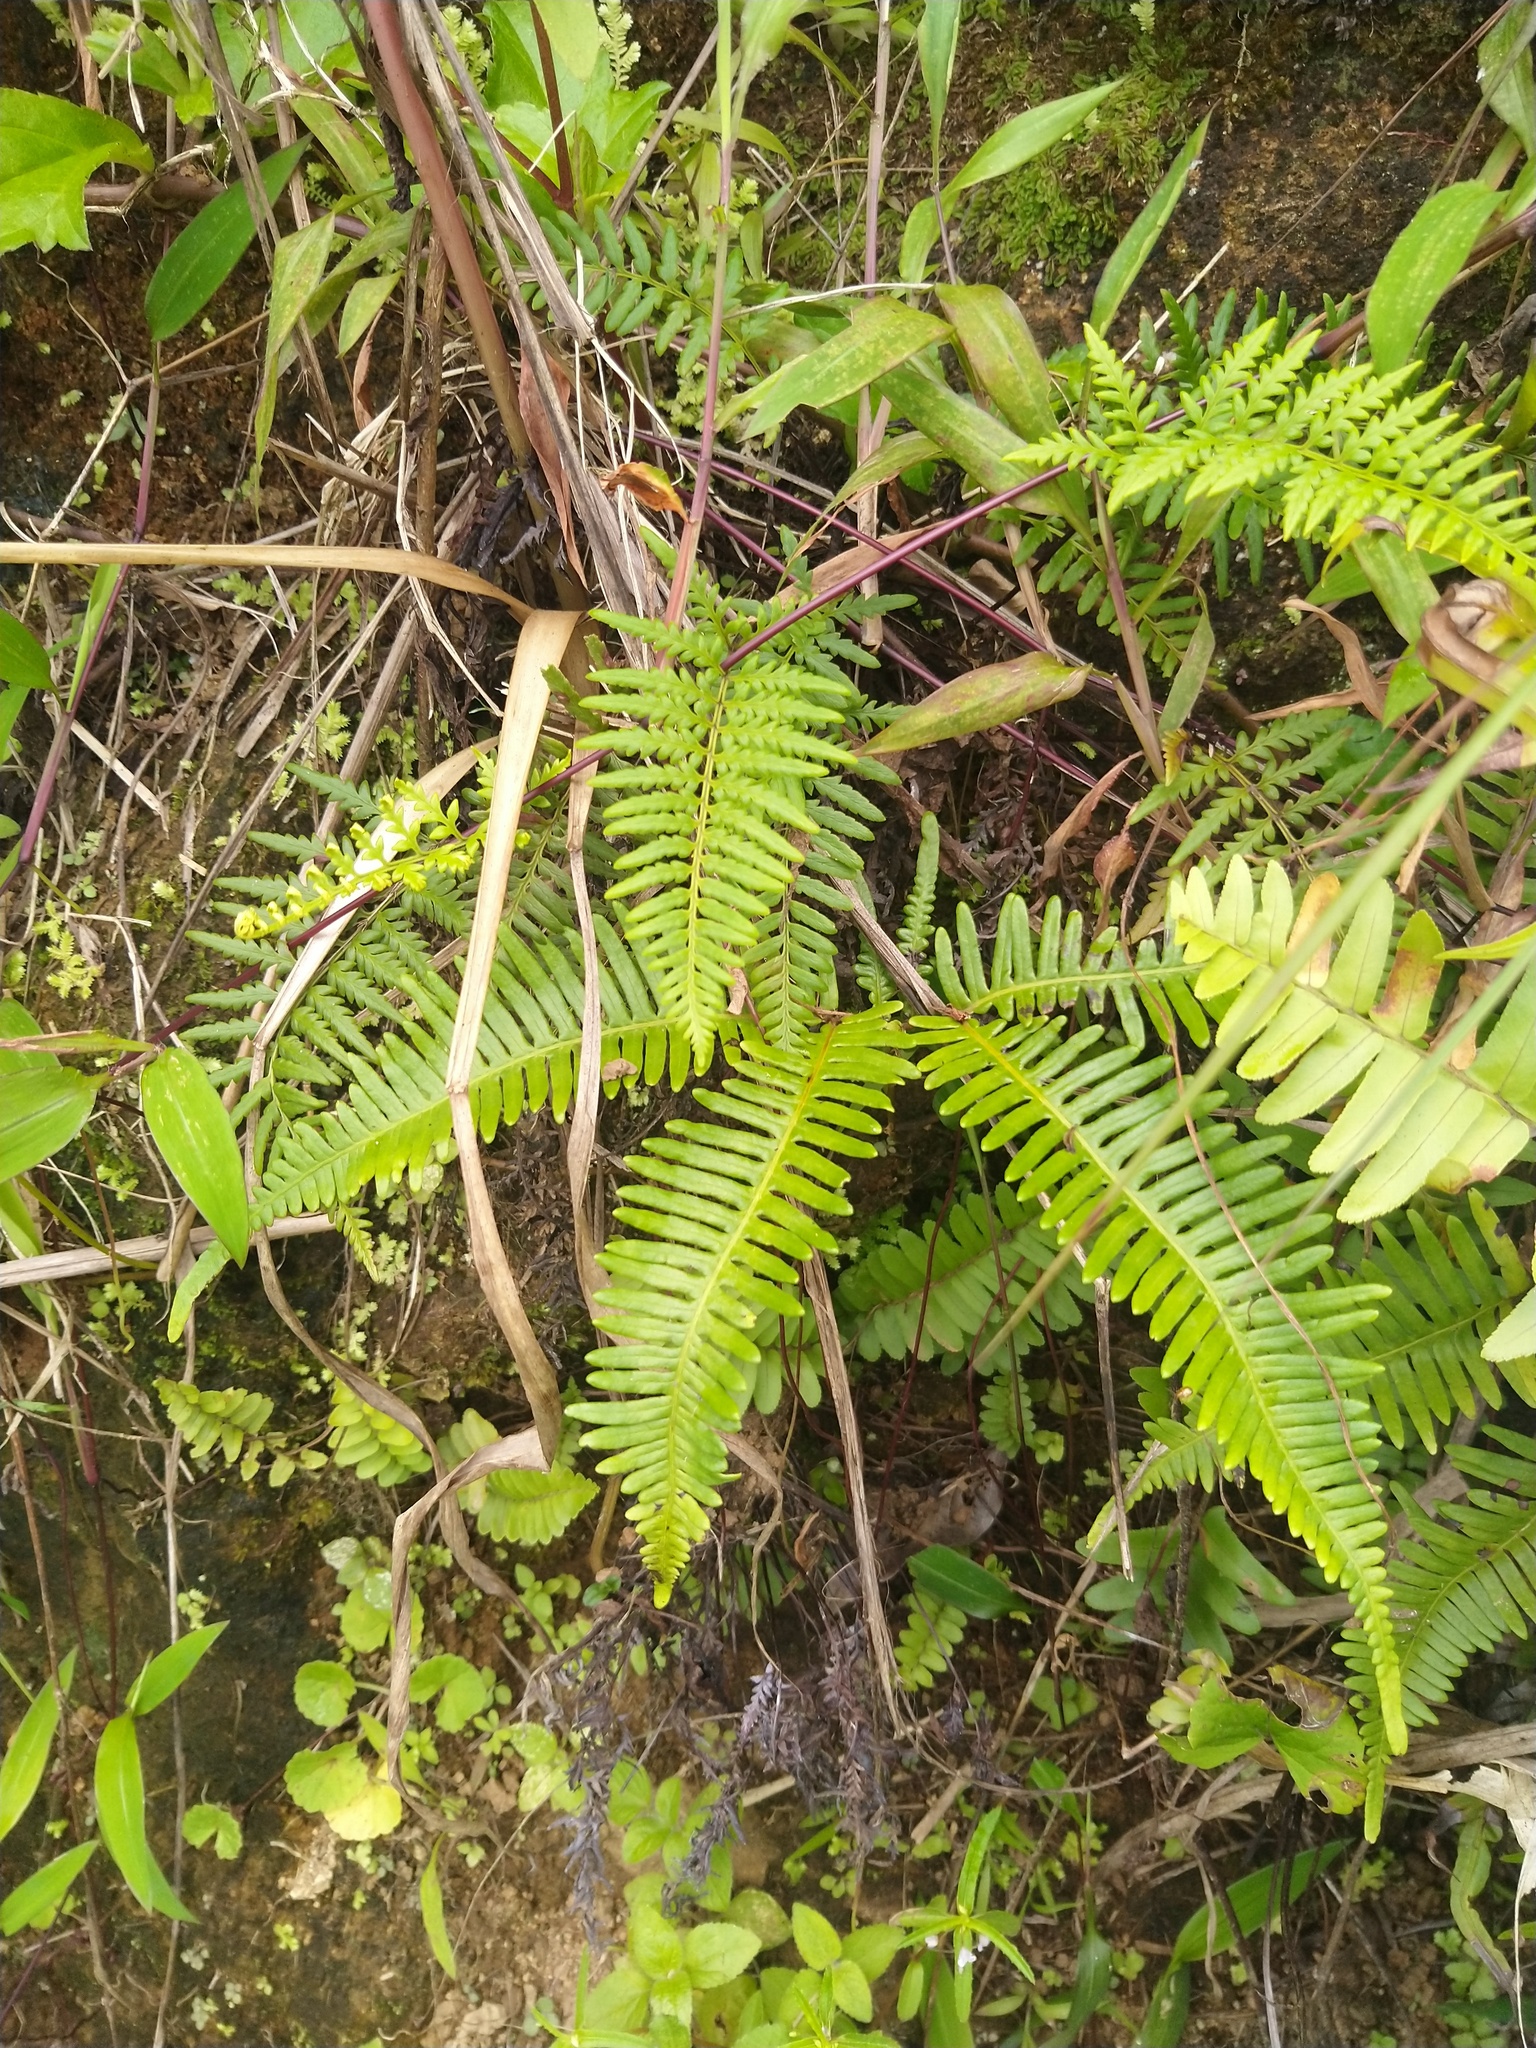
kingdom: Plantae
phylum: Tracheophyta
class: Polypodiopsida
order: Gleicheniales
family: Gleicheniaceae
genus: Dicranopteris
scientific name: Dicranopteris linearis
